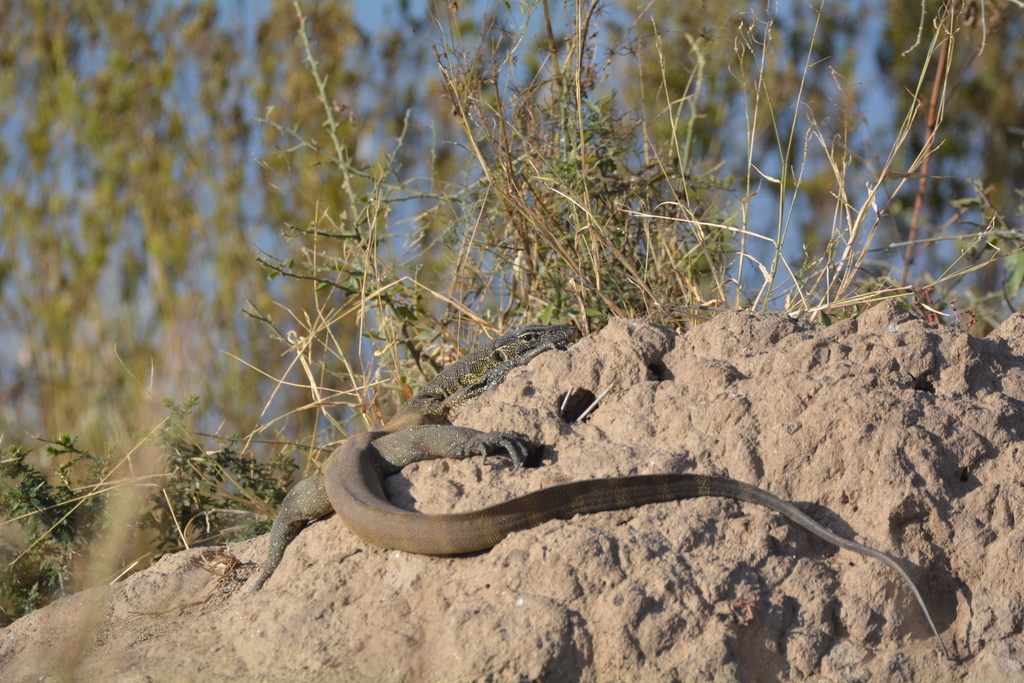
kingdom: Animalia
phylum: Chordata
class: Squamata
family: Varanidae
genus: Varanus
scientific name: Varanus niloticus
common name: Nile monitor
